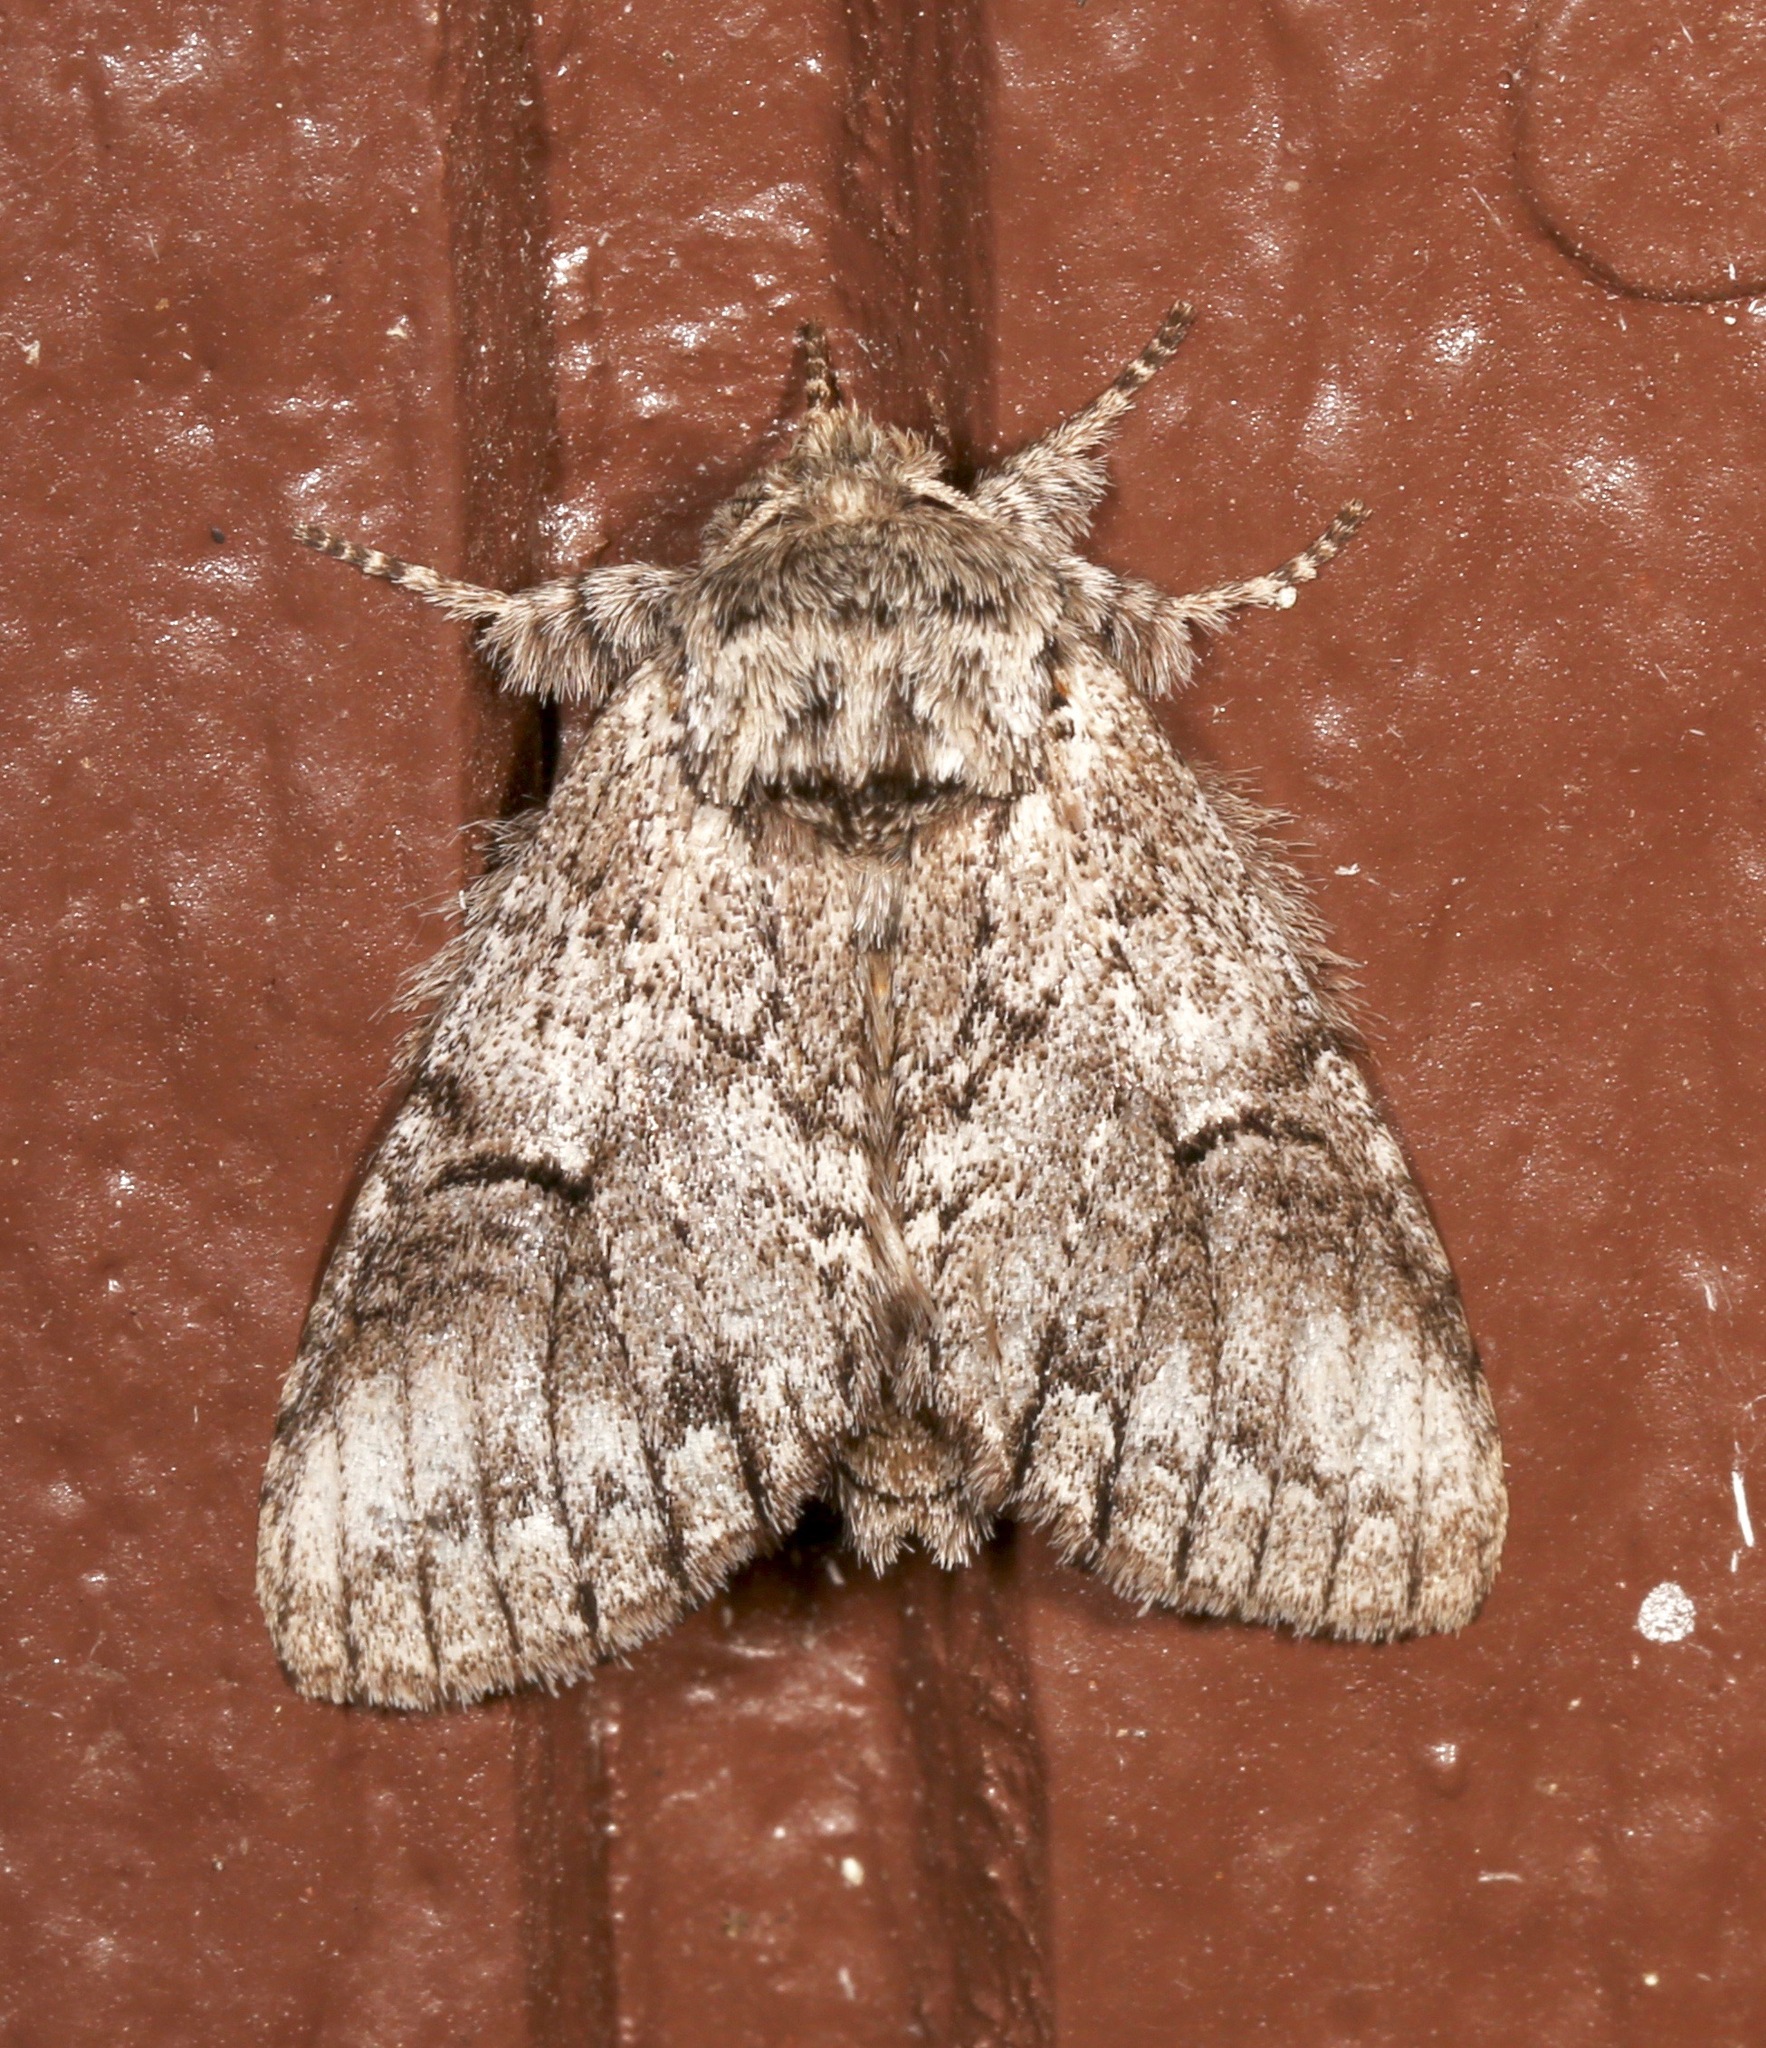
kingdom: Animalia
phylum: Arthropoda
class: Insecta
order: Lepidoptera
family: Notodontidae
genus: Macrurocampa
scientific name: Macrurocampa
